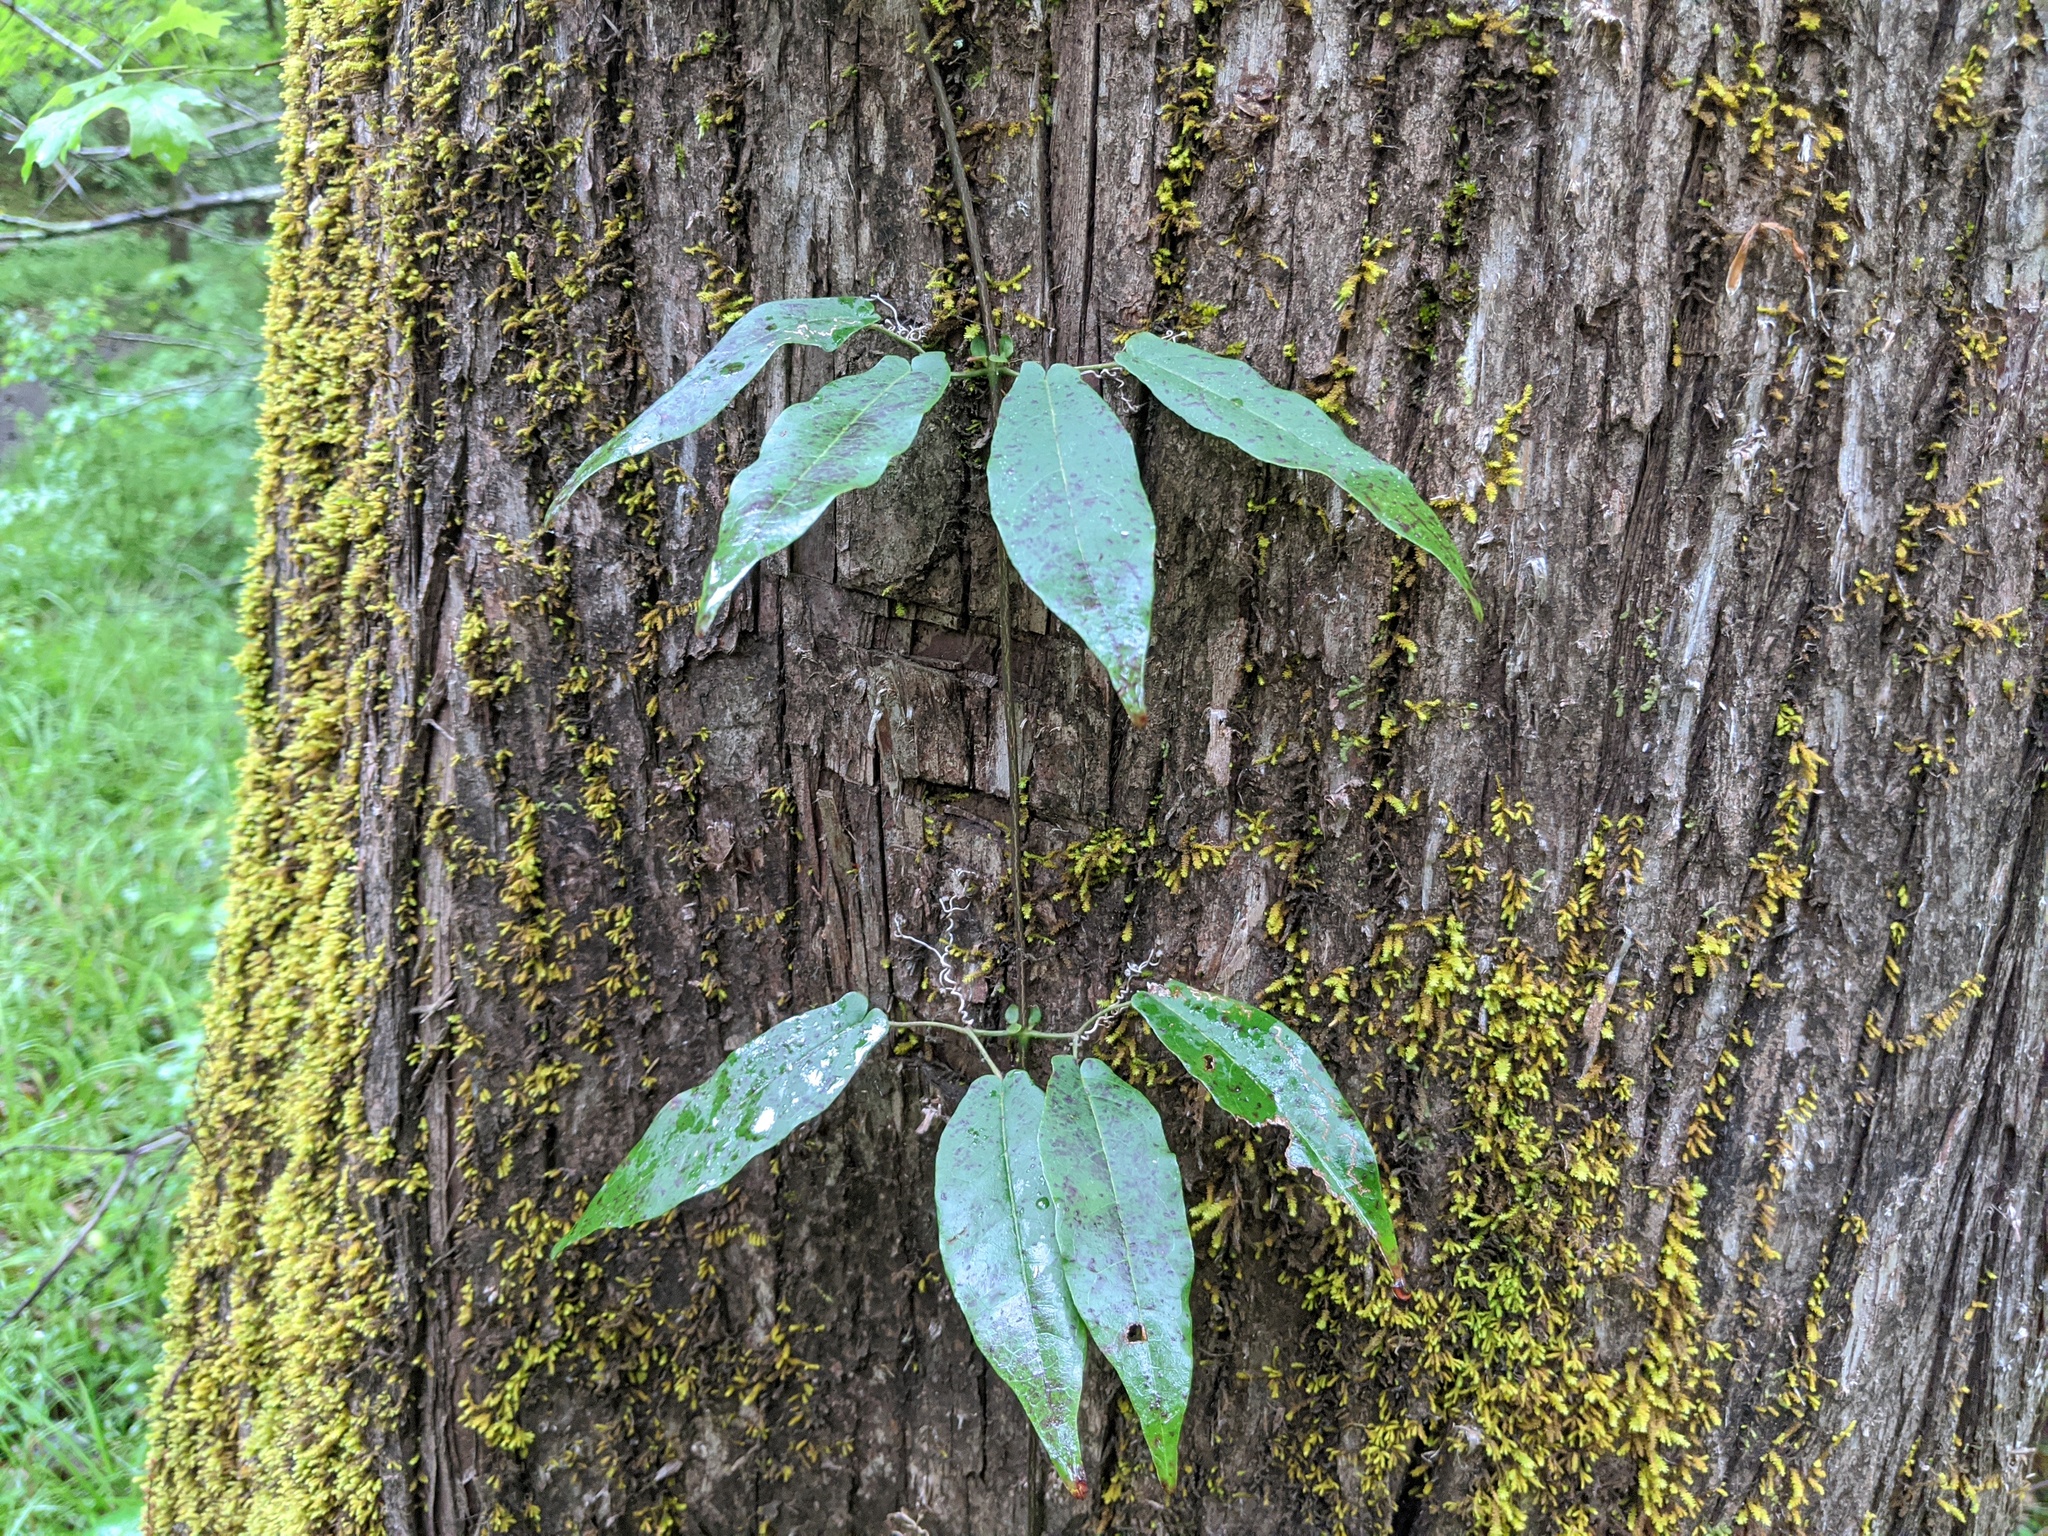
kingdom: Plantae
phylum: Tracheophyta
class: Magnoliopsida
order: Lamiales
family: Bignoniaceae
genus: Bignonia
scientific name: Bignonia capreolata
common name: Crossvine
